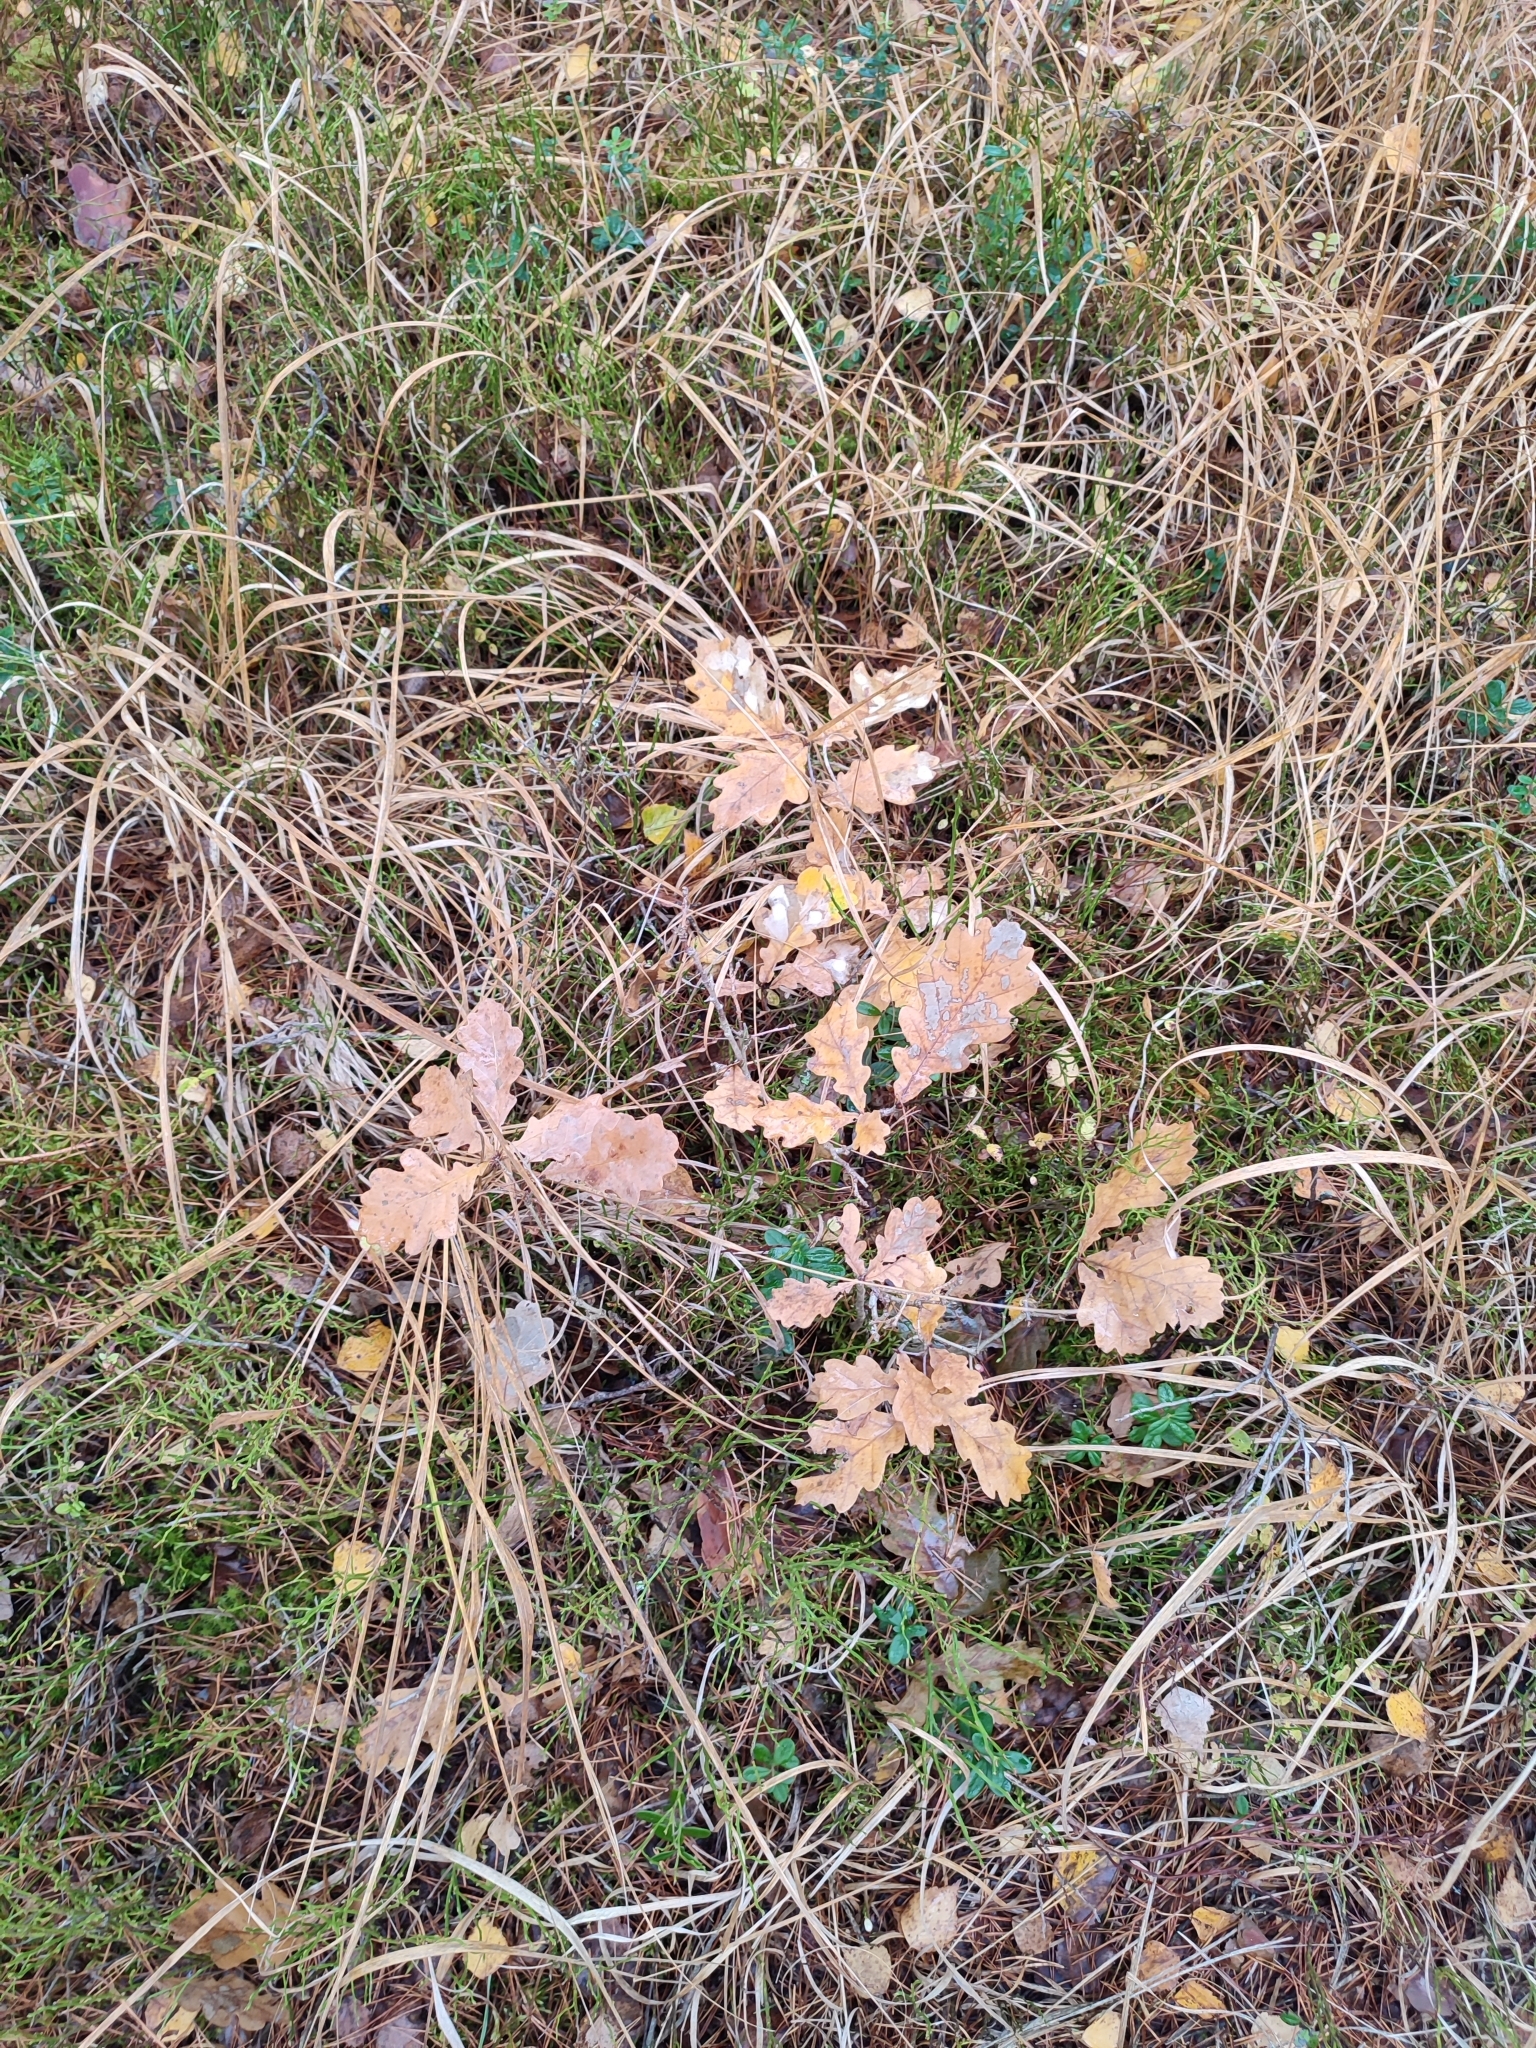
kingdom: Plantae
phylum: Tracheophyta
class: Magnoliopsida
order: Fagales
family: Fagaceae
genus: Quercus
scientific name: Quercus robur
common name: Pedunculate oak
